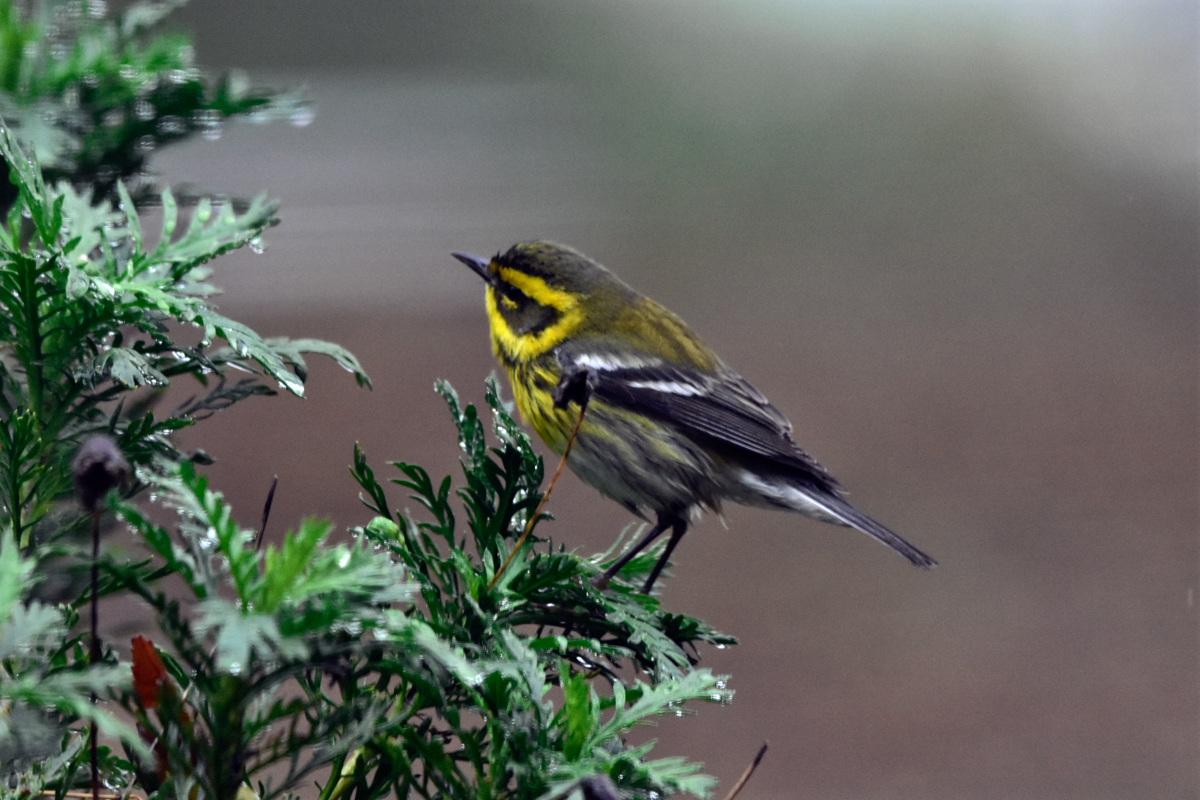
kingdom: Animalia
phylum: Chordata
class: Aves
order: Passeriformes
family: Parulidae
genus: Setophaga
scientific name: Setophaga townsendi
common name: Townsend's warbler
